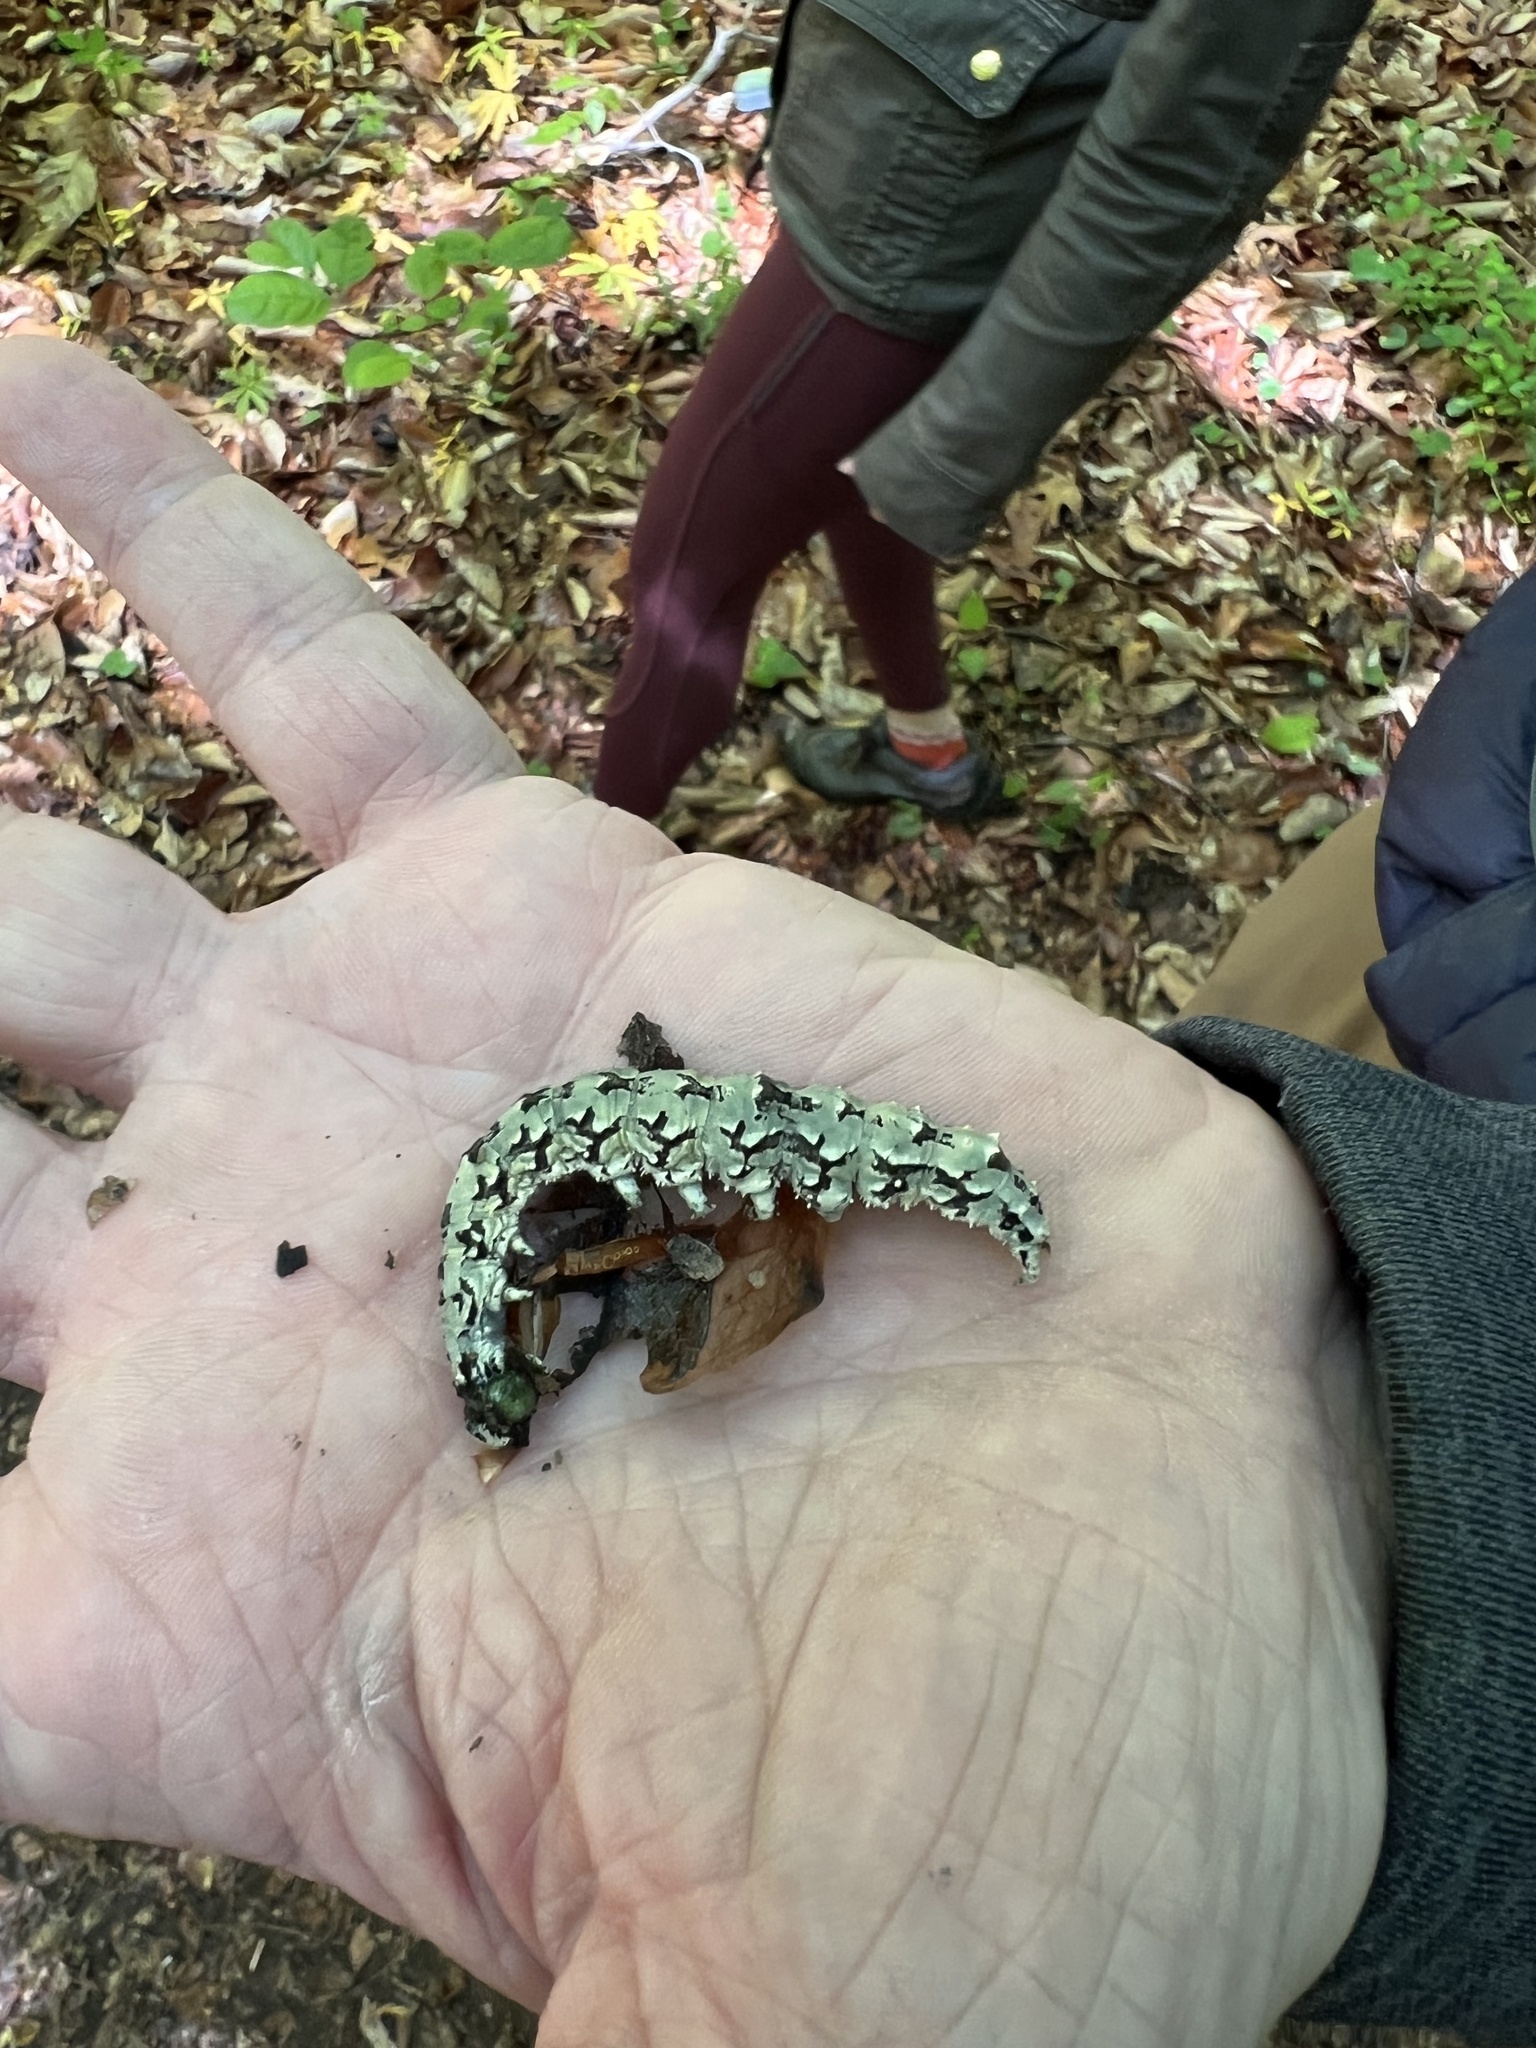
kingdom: Animalia
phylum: Arthropoda
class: Insecta
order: Lepidoptera
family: Erebidae
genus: Catocala
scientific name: Catocala ilia
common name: Ilia underwing
